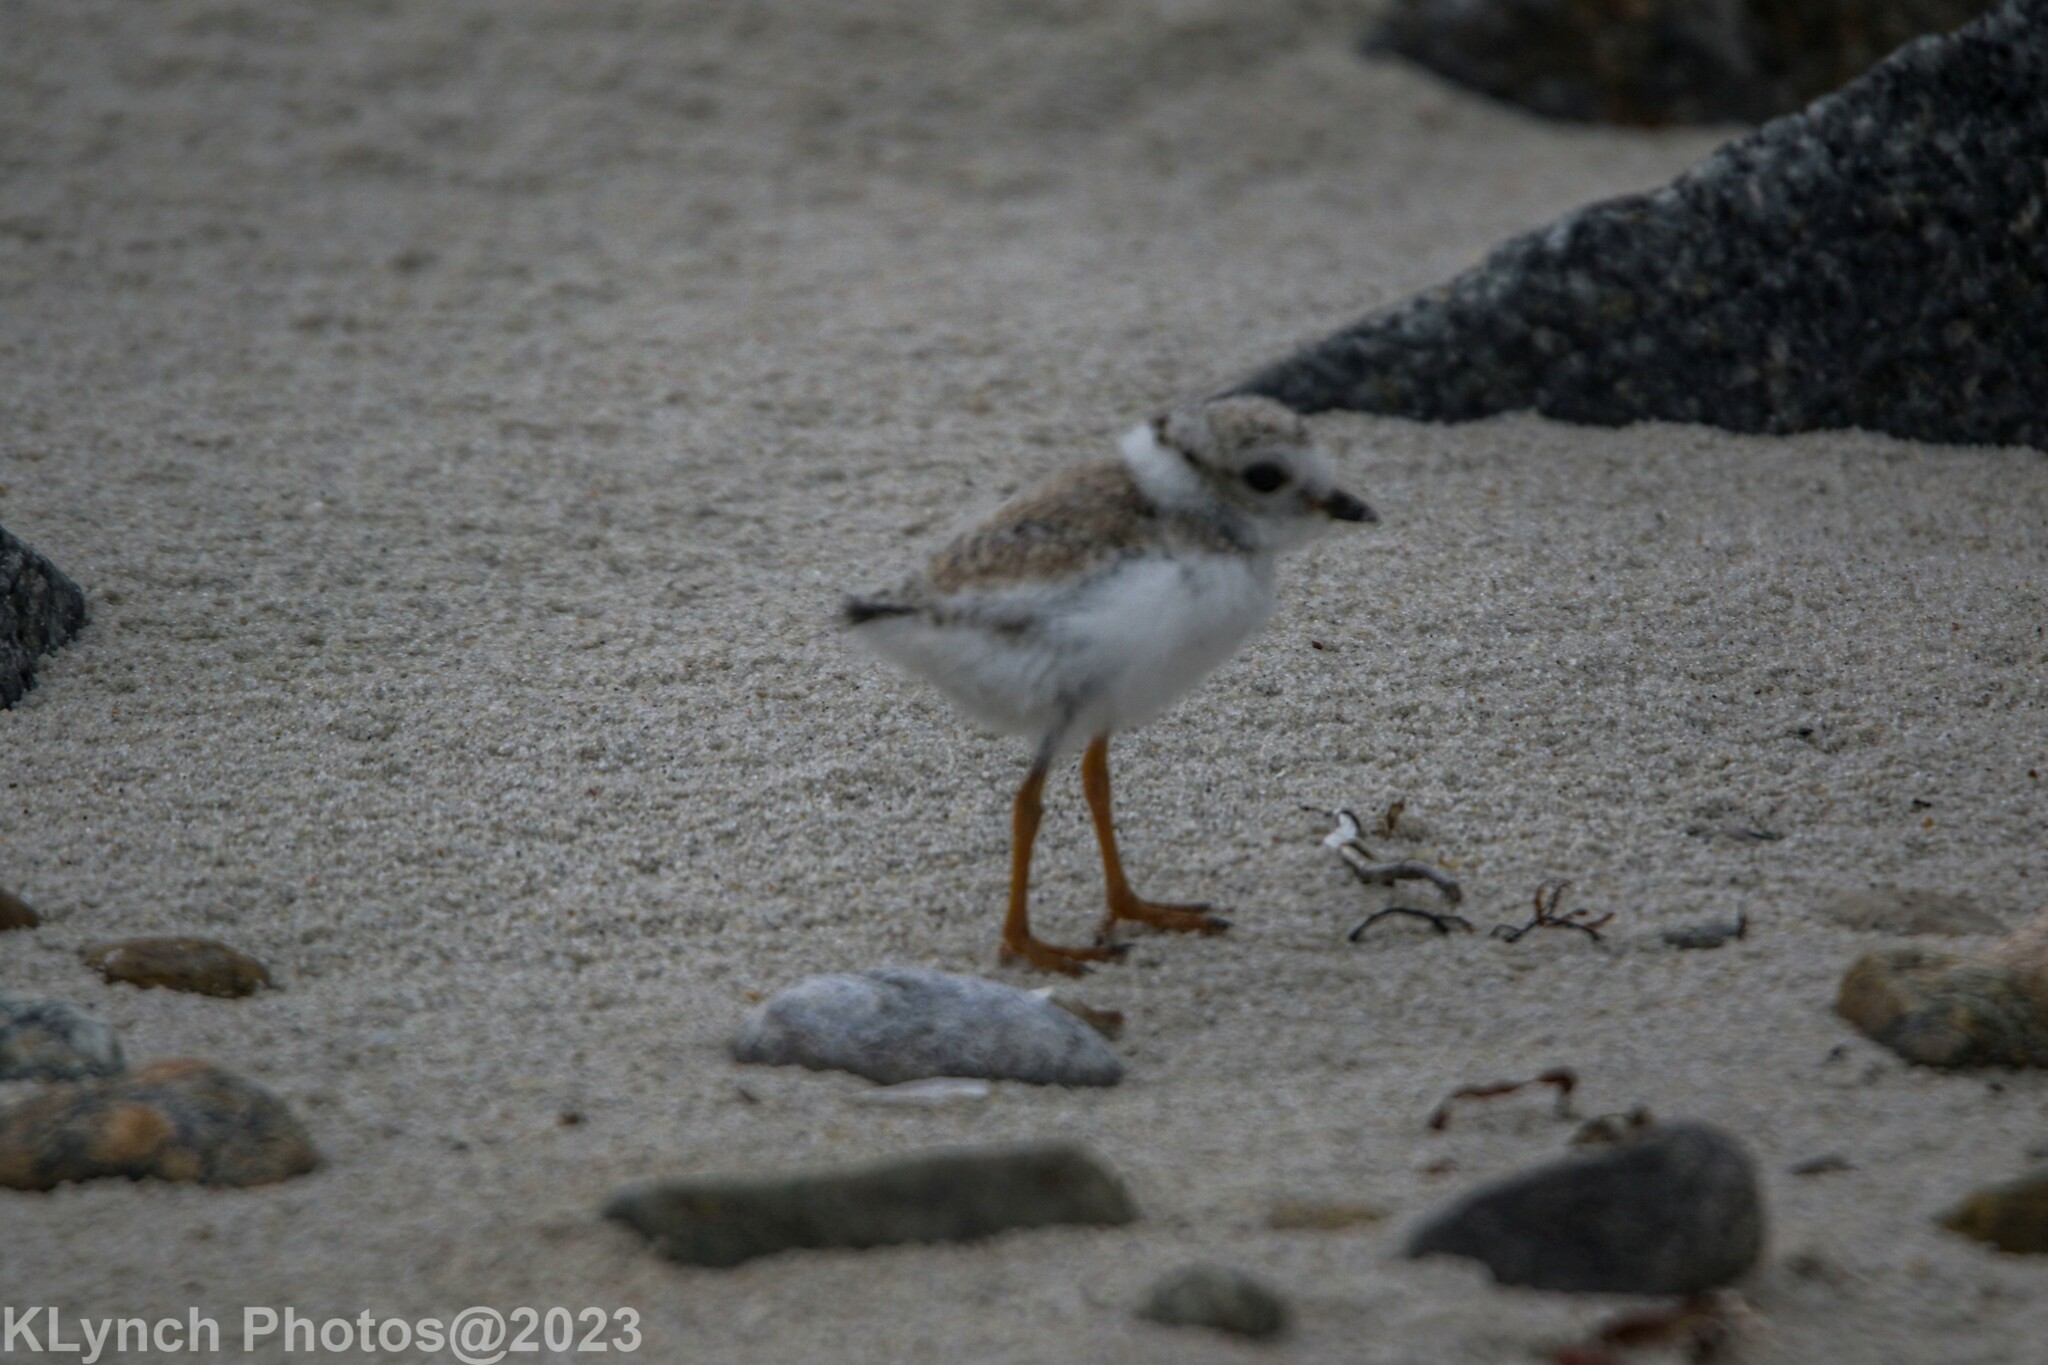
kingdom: Animalia
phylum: Chordata
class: Aves
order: Charadriiformes
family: Charadriidae
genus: Charadrius
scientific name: Charadrius melodus
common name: Piping plover
